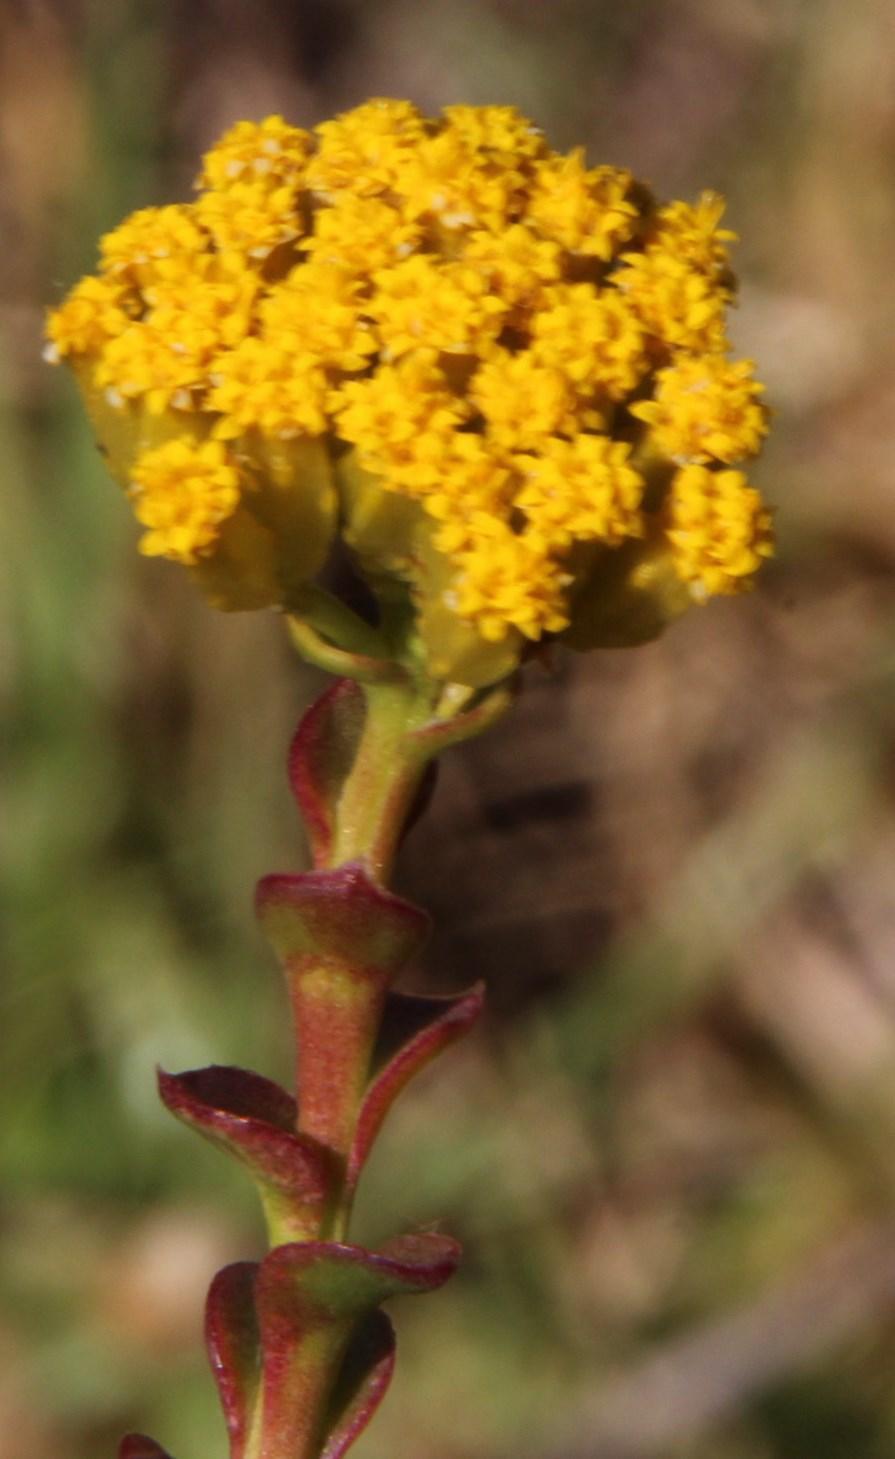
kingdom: Plantae
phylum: Tracheophyta
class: Magnoliopsida
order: Asterales
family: Asteraceae
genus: Athanasia
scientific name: Athanasia dentata
